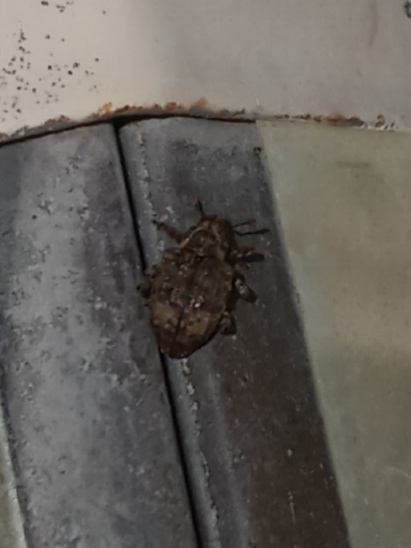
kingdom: Animalia
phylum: Arthropoda
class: Insecta
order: Coleoptera
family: Curculionidae
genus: Conotrachelus
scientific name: Conotrachelus seniculus
